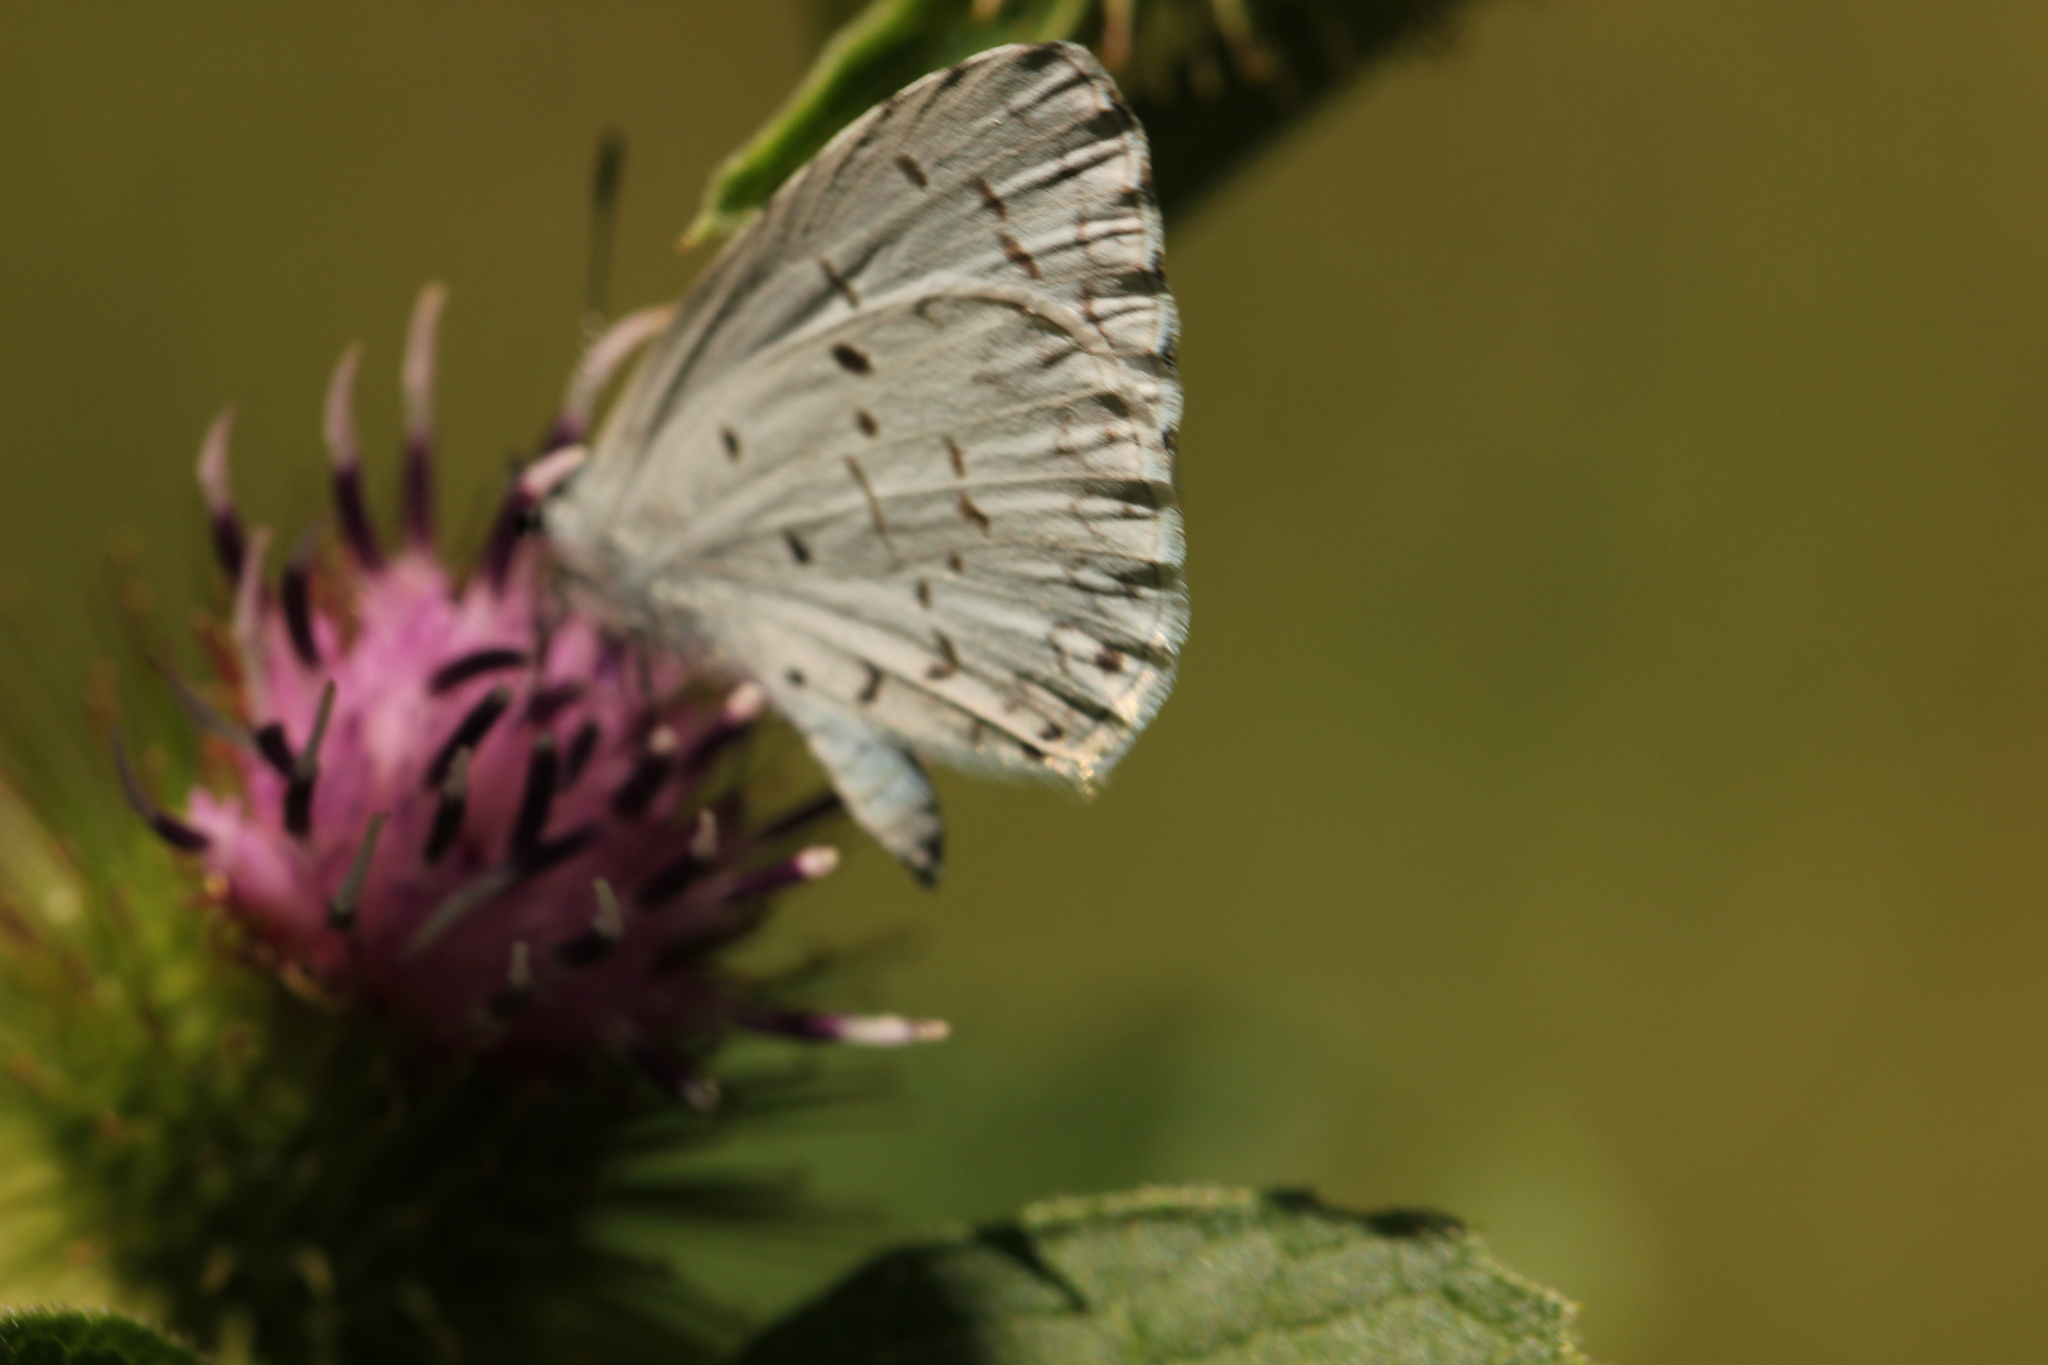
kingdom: Animalia
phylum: Arthropoda
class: Insecta
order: Lepidoptera
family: Lycaenidae
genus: Cyaniris
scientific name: Cyaniris neglecta
